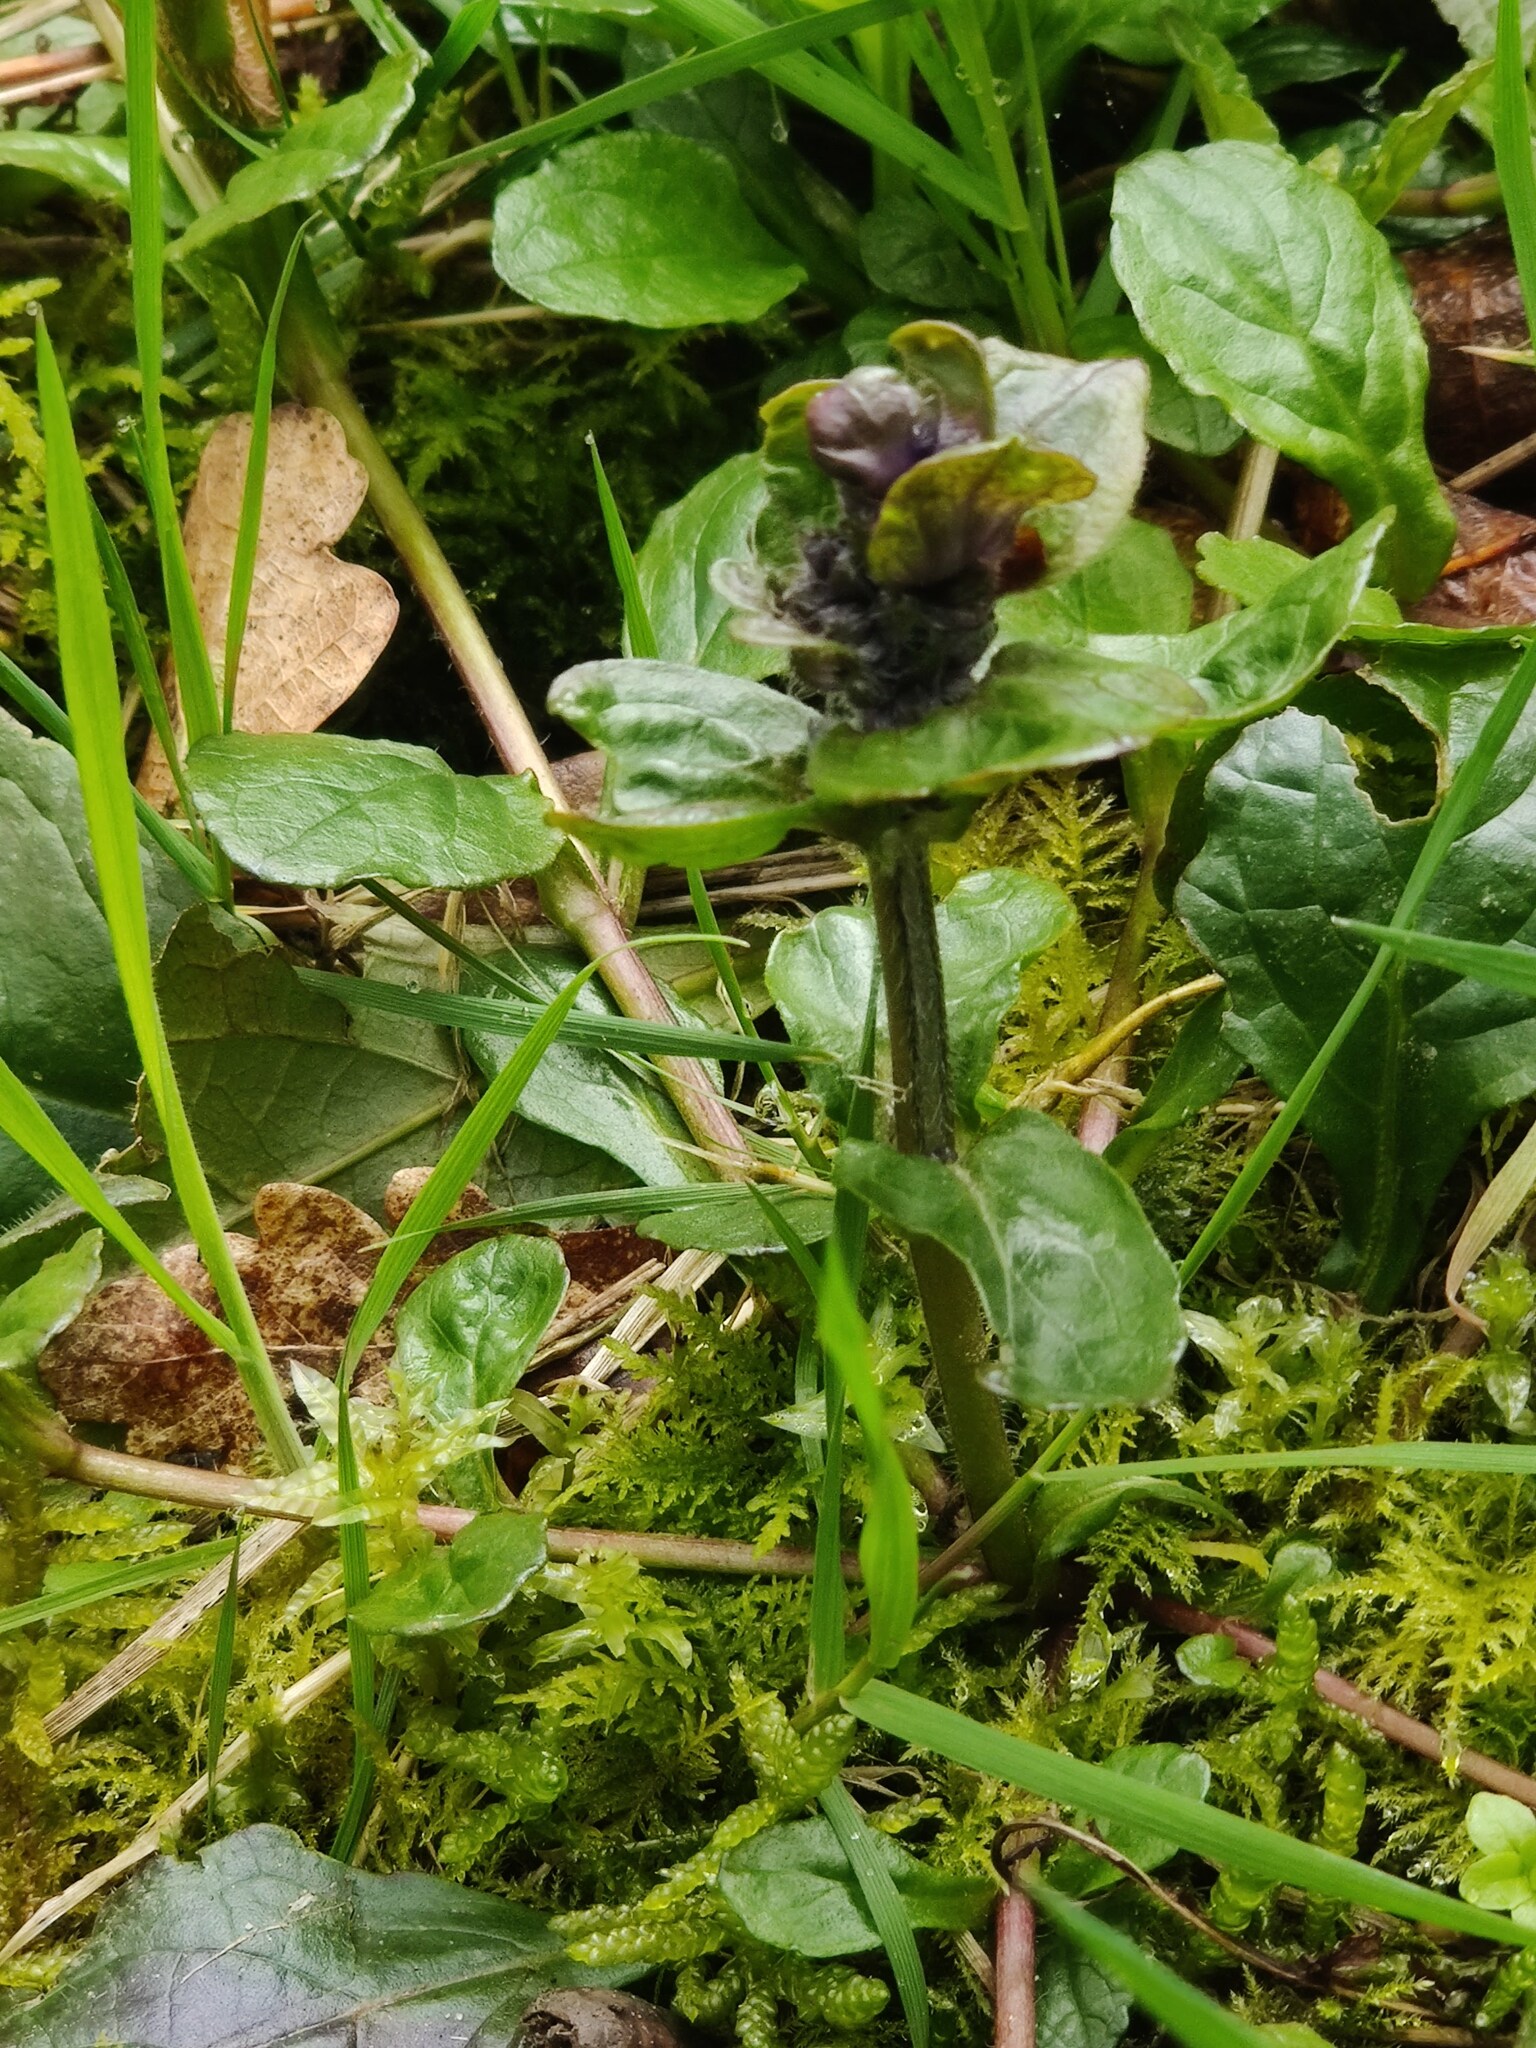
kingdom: Plantae
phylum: Tracheophyta
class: Magnoliopsida
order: Lamiales
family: Lamiaceae
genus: Ajuga
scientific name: Ajuga reptans
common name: Bugle
